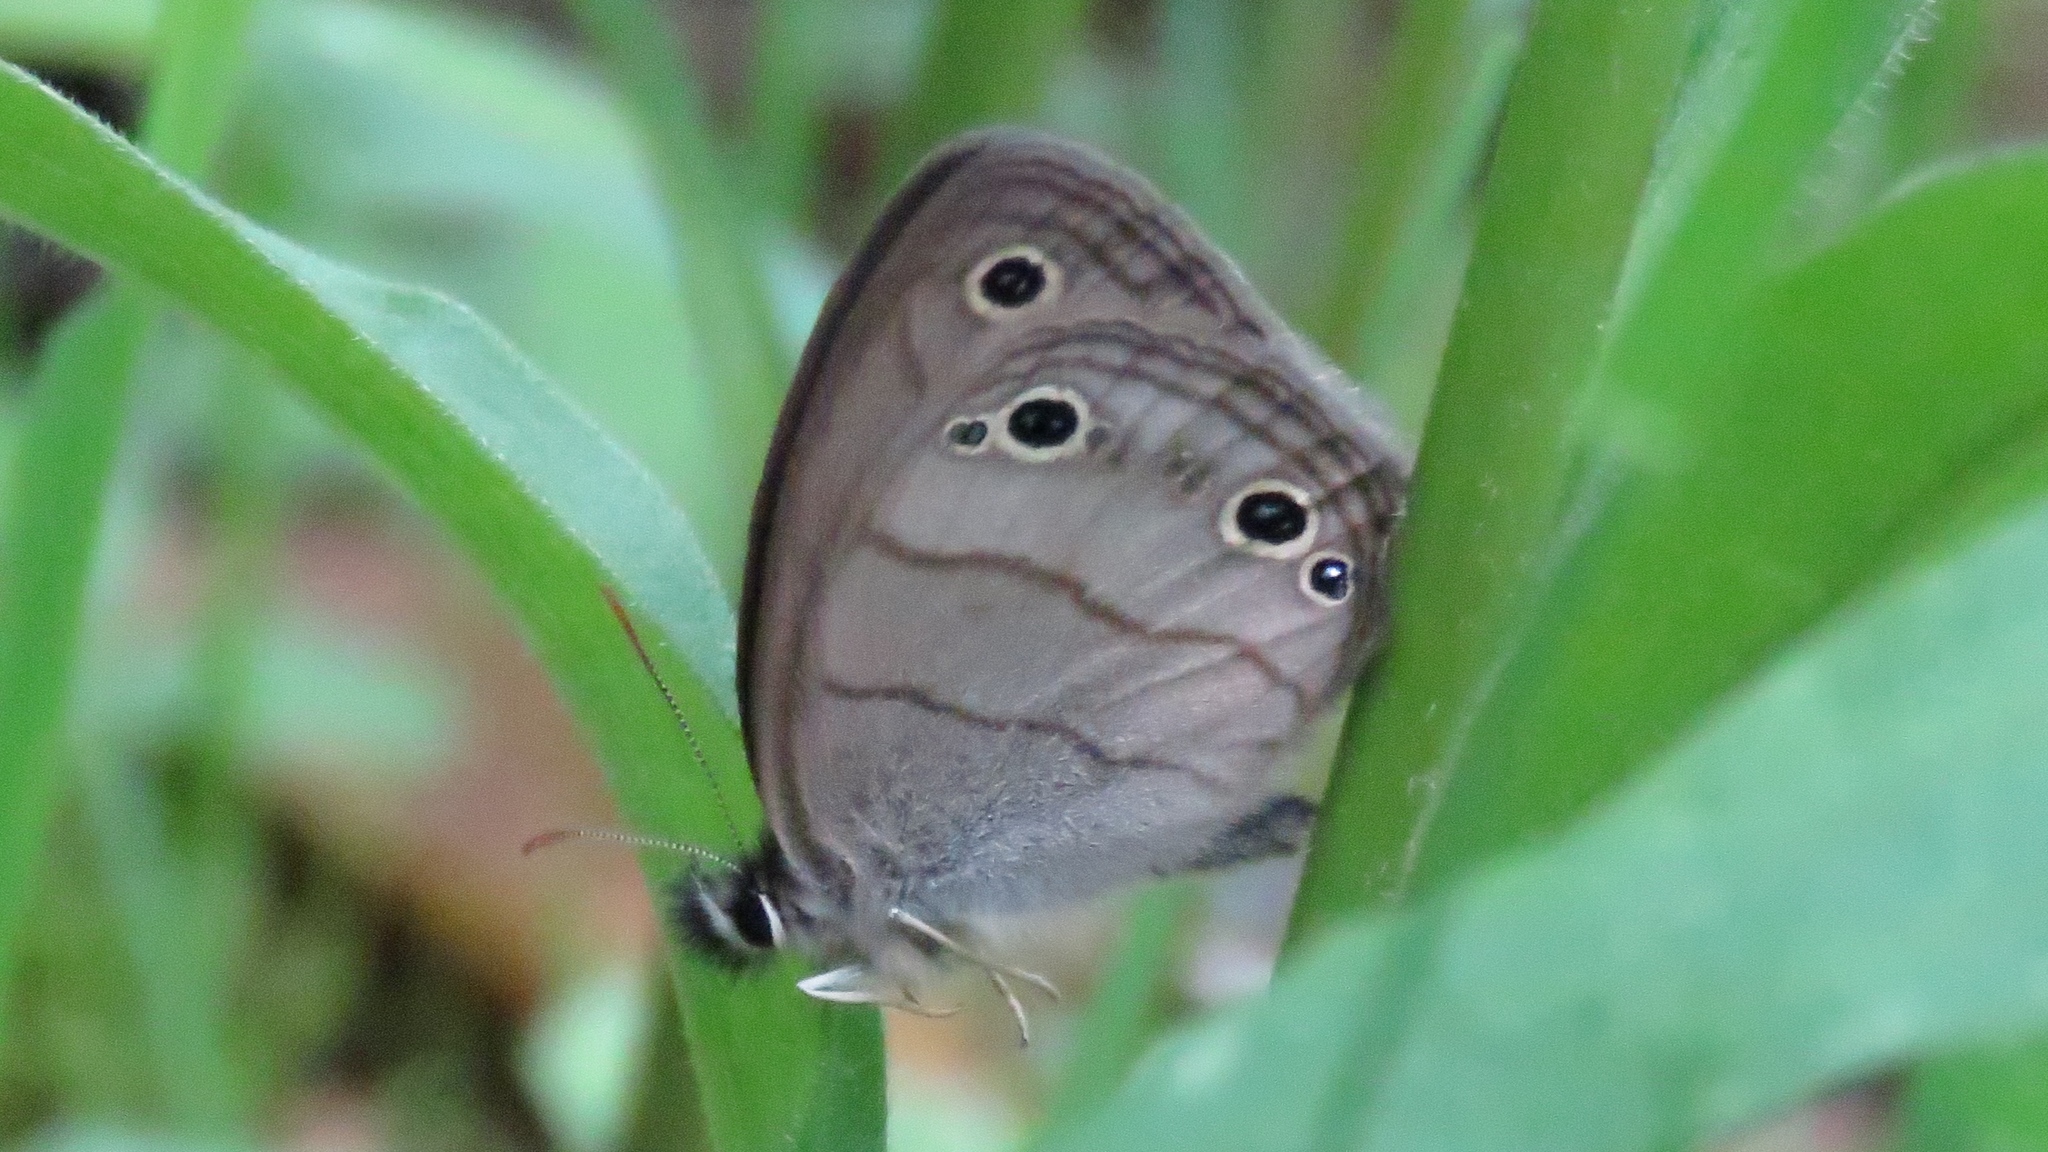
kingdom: Animalia
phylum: Arthropoda
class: Insecta
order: Lepidoptera
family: Nymphalidae
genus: Euptychia
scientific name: Euptychia cymela
